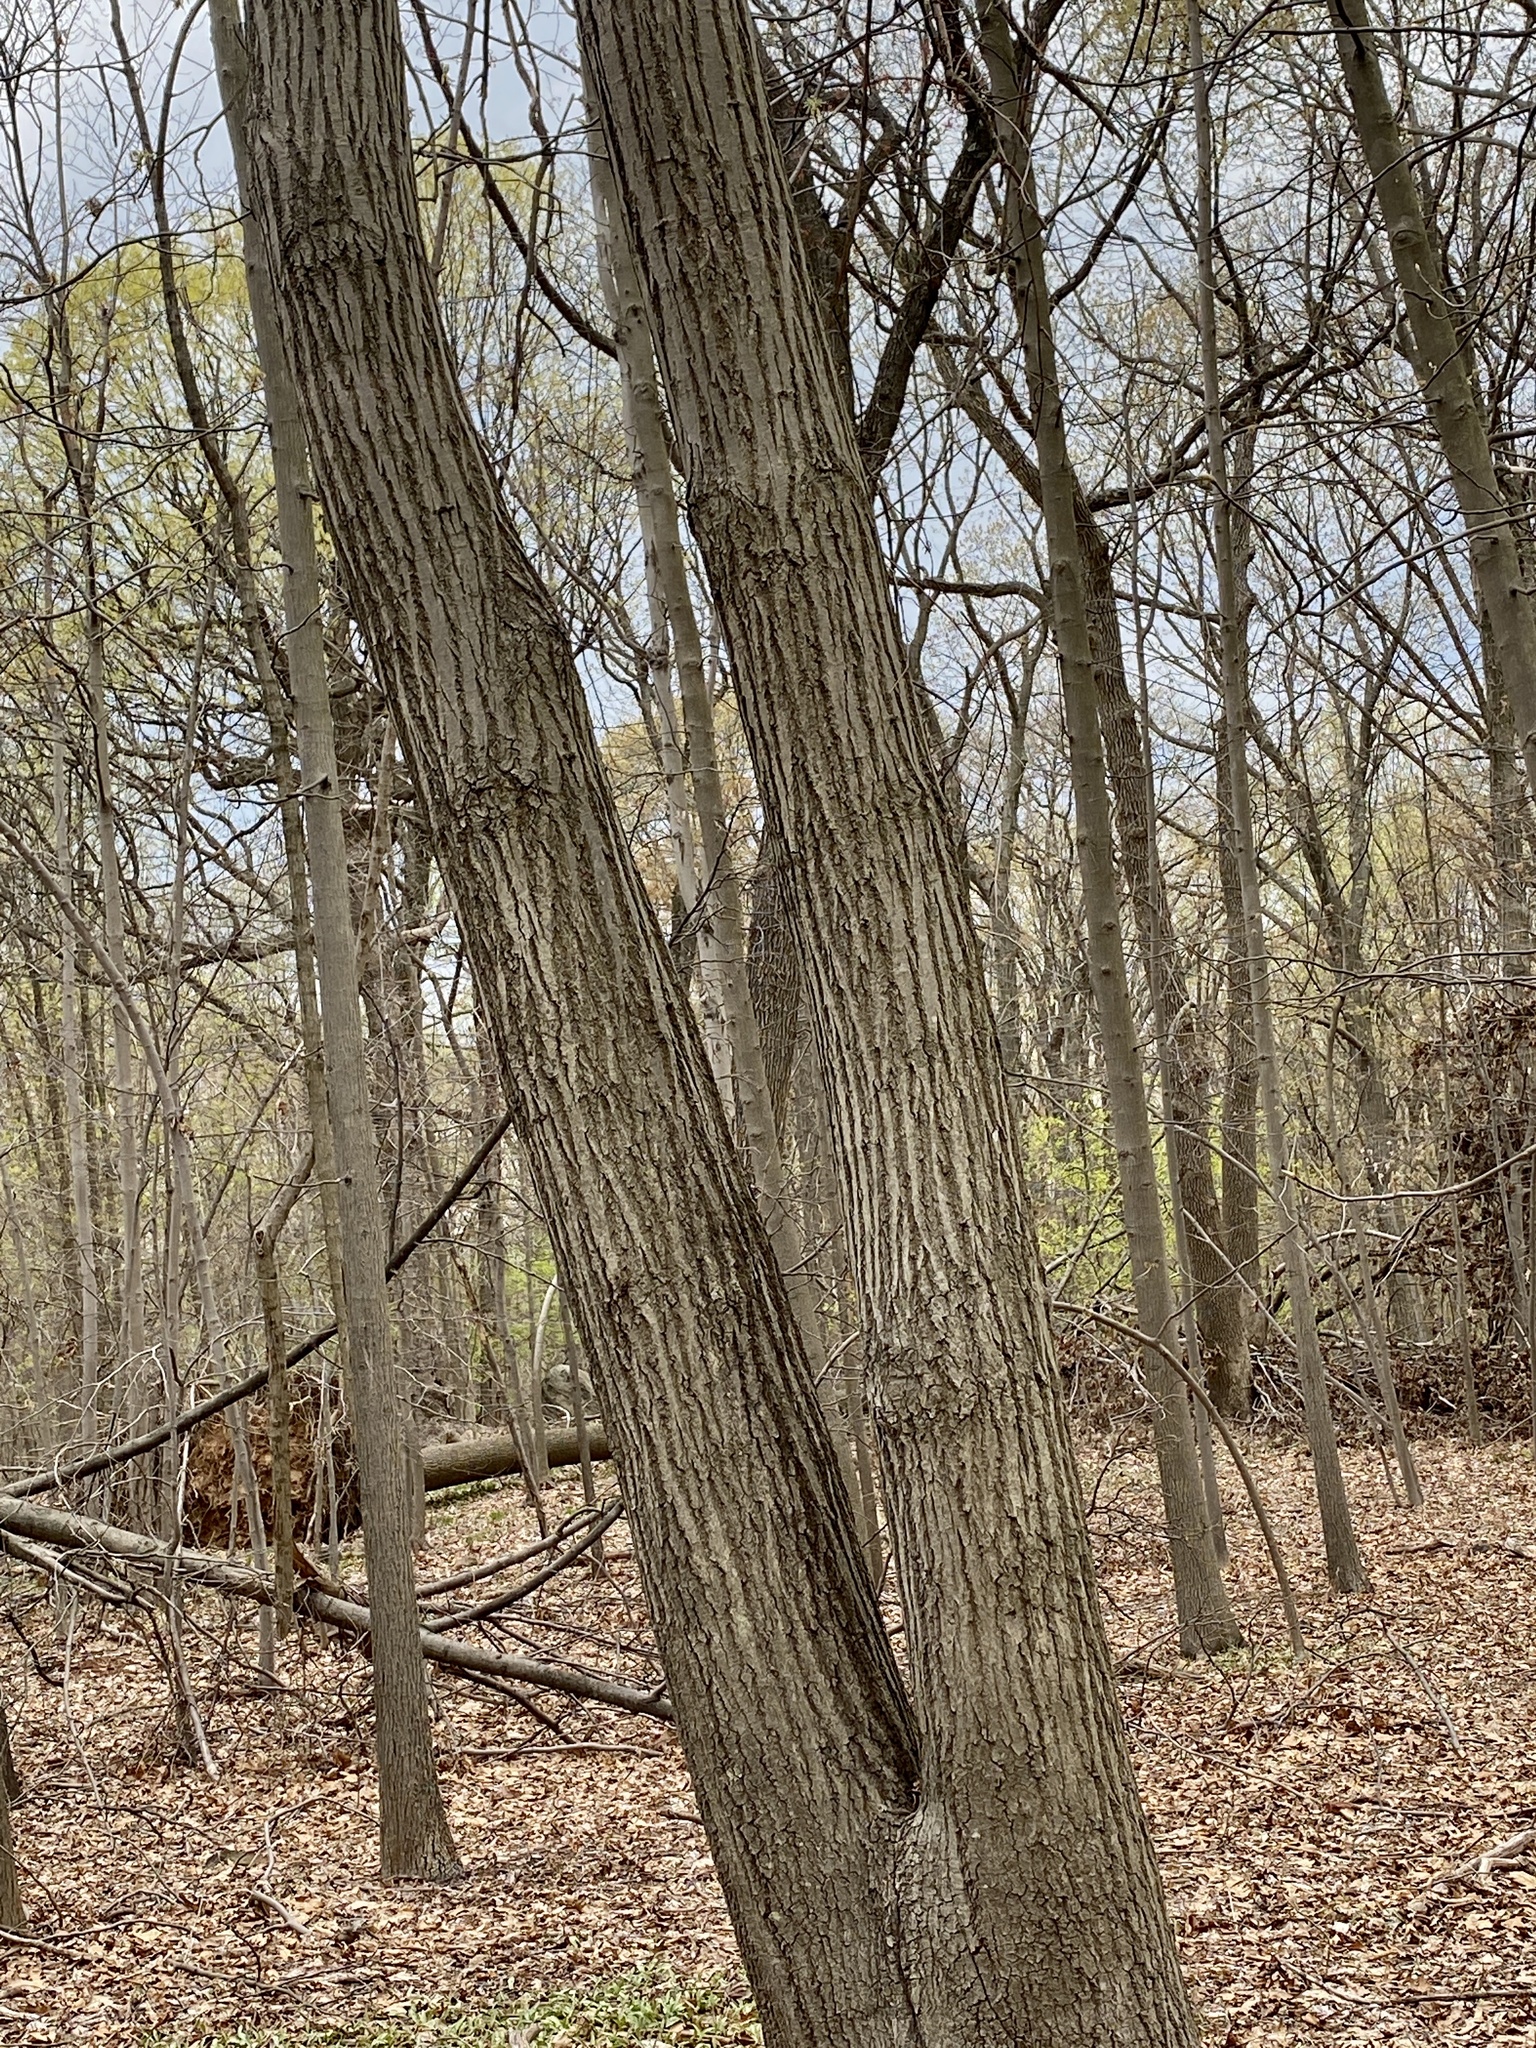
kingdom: Plantae
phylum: Tracheophyta
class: Magnoliopsida
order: Fagales
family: Fagaceae
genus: Quercus
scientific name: Quercus rubra
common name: Red oak
